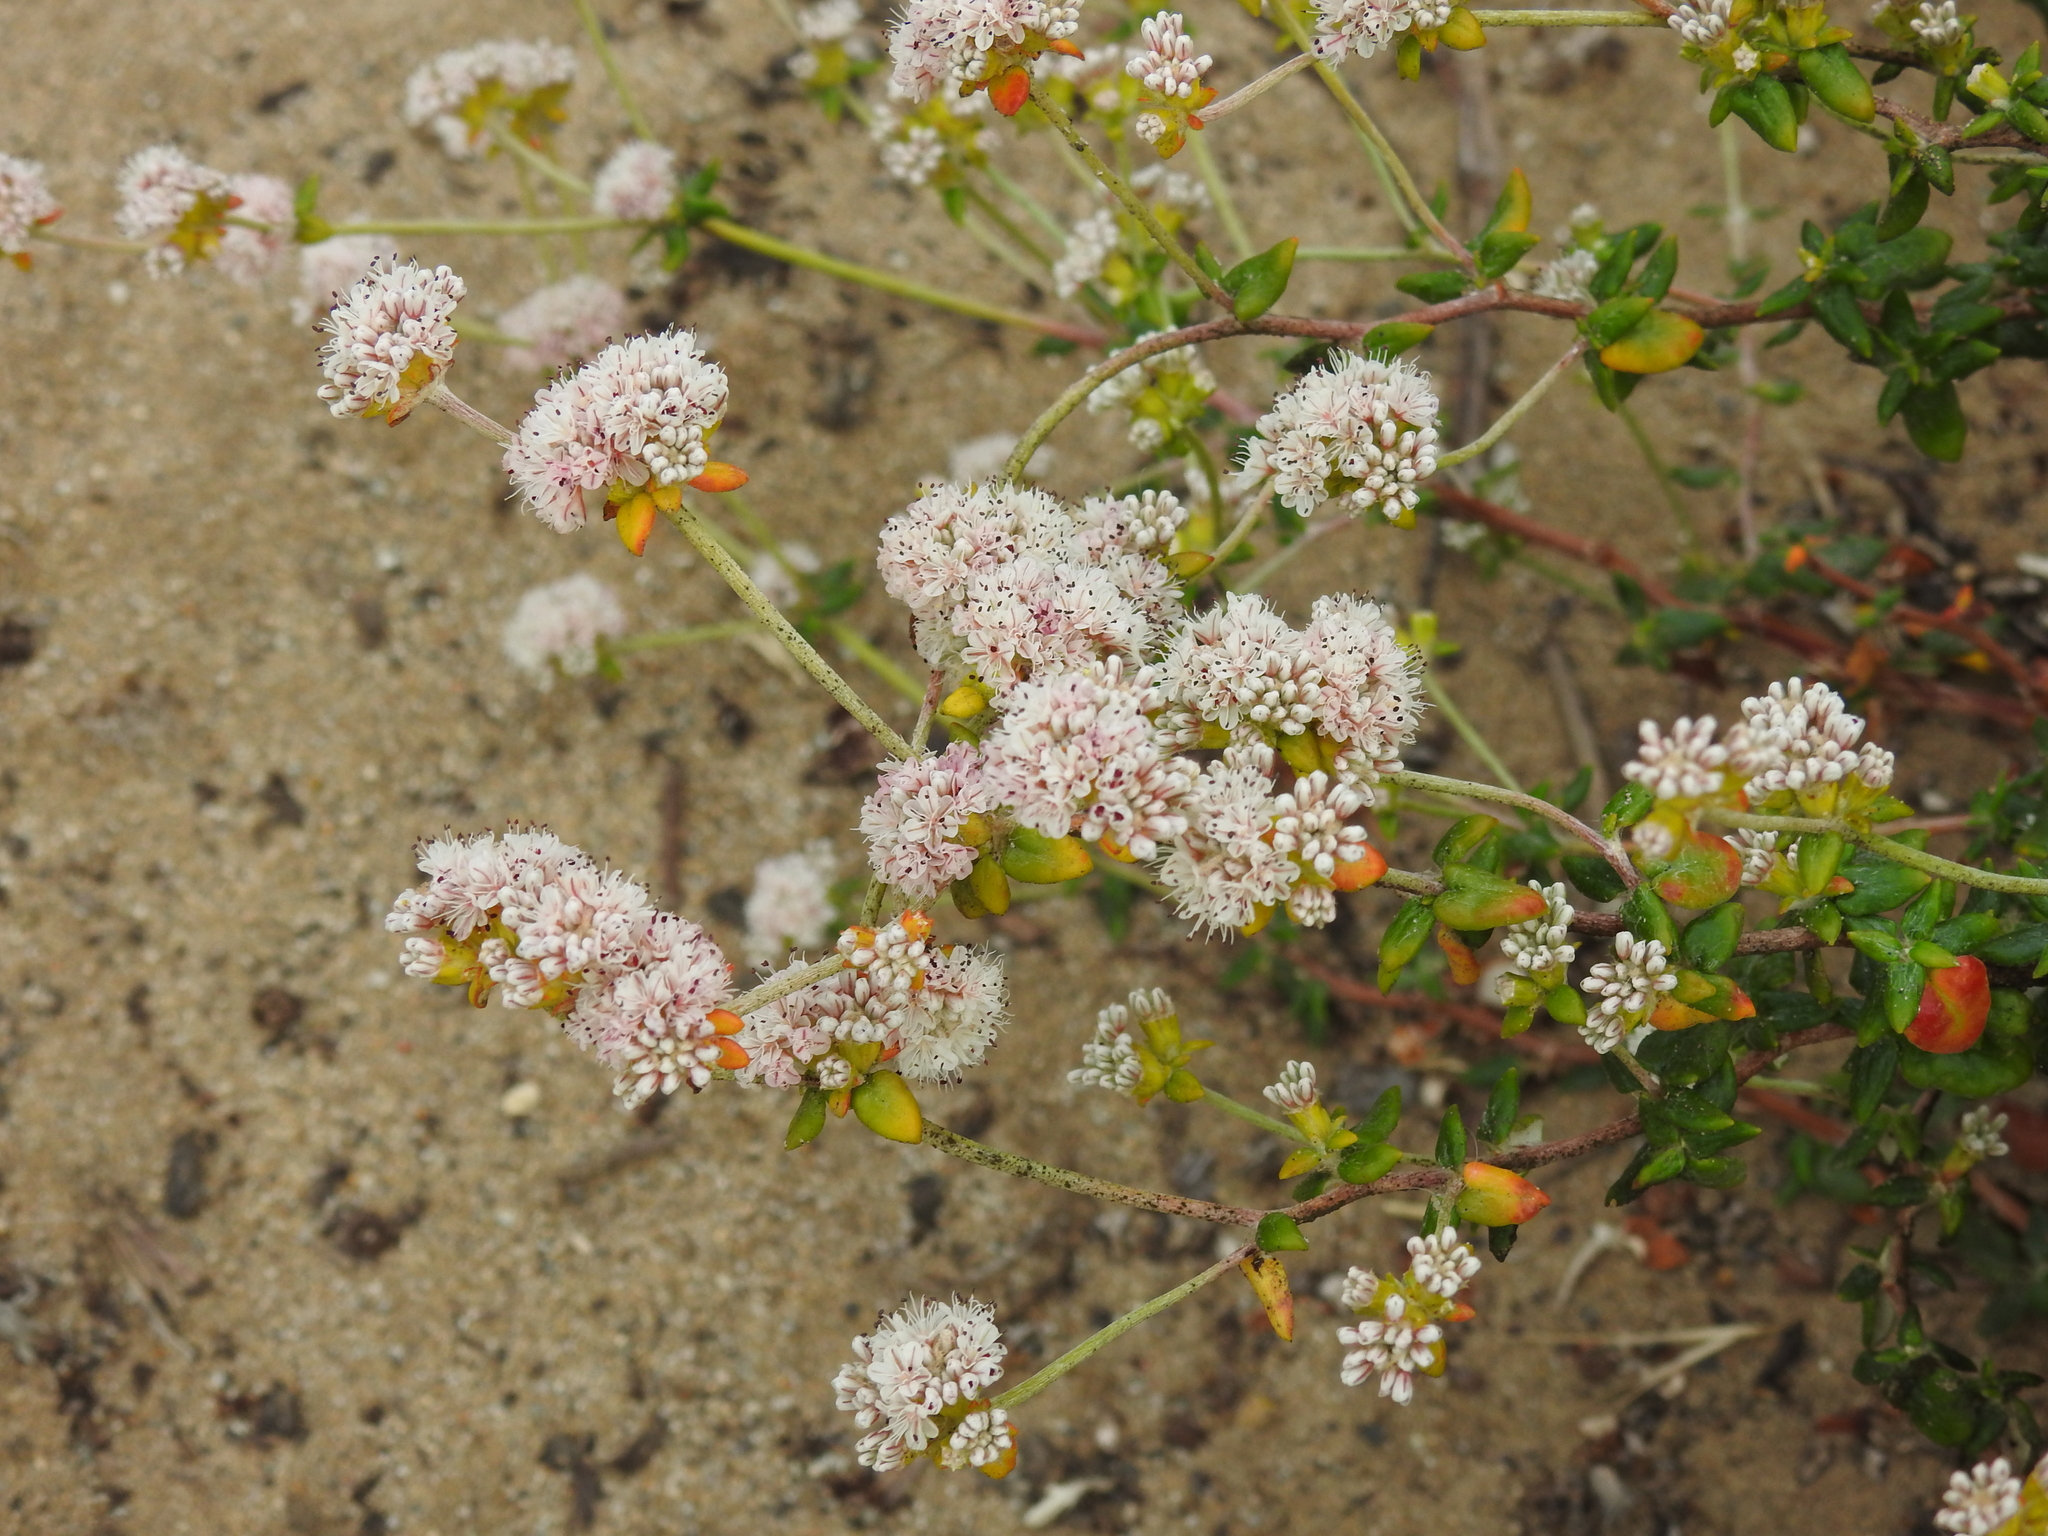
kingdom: Plantae
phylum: Tracheophyta
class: Magnoliopsida
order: Caryophyllales
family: Polygonaceae
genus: Eriogonum
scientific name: Eriogonum parvifolium
